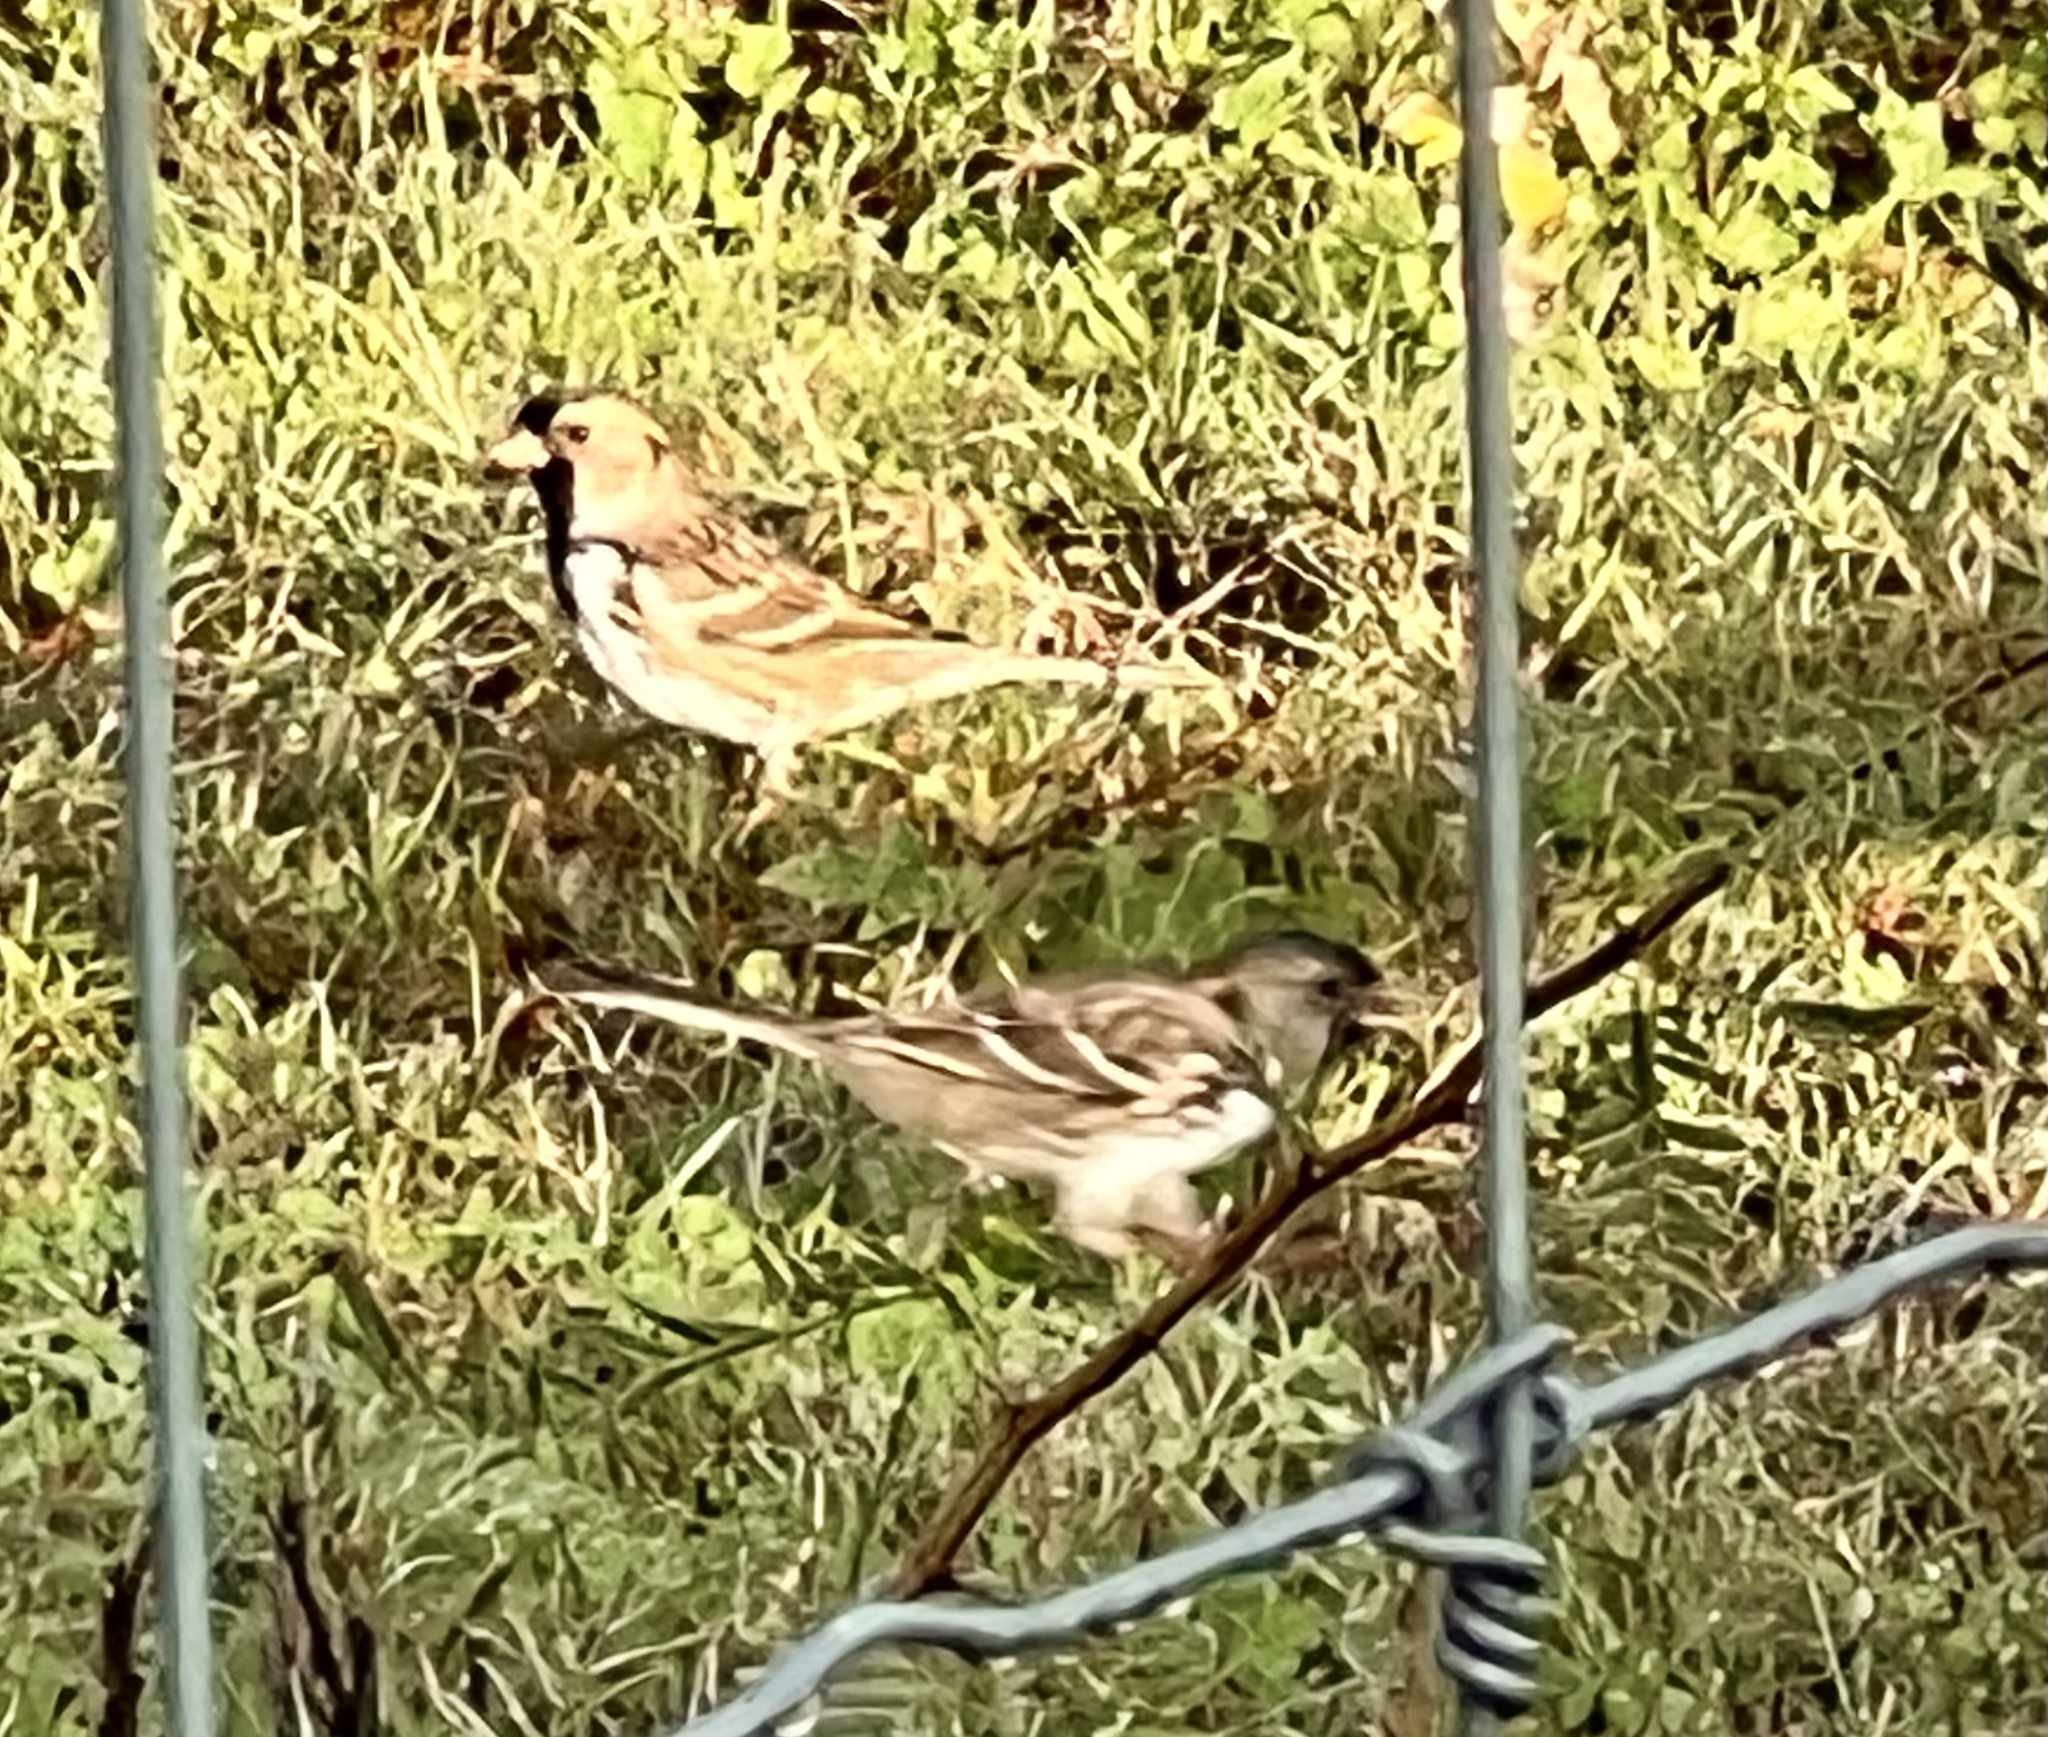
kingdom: Animalia
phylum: Chordata
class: Aves
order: Passeriformes
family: Passerellidae
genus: Zonotrichia
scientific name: Zonotrichia querula
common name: Harris's sparrow
